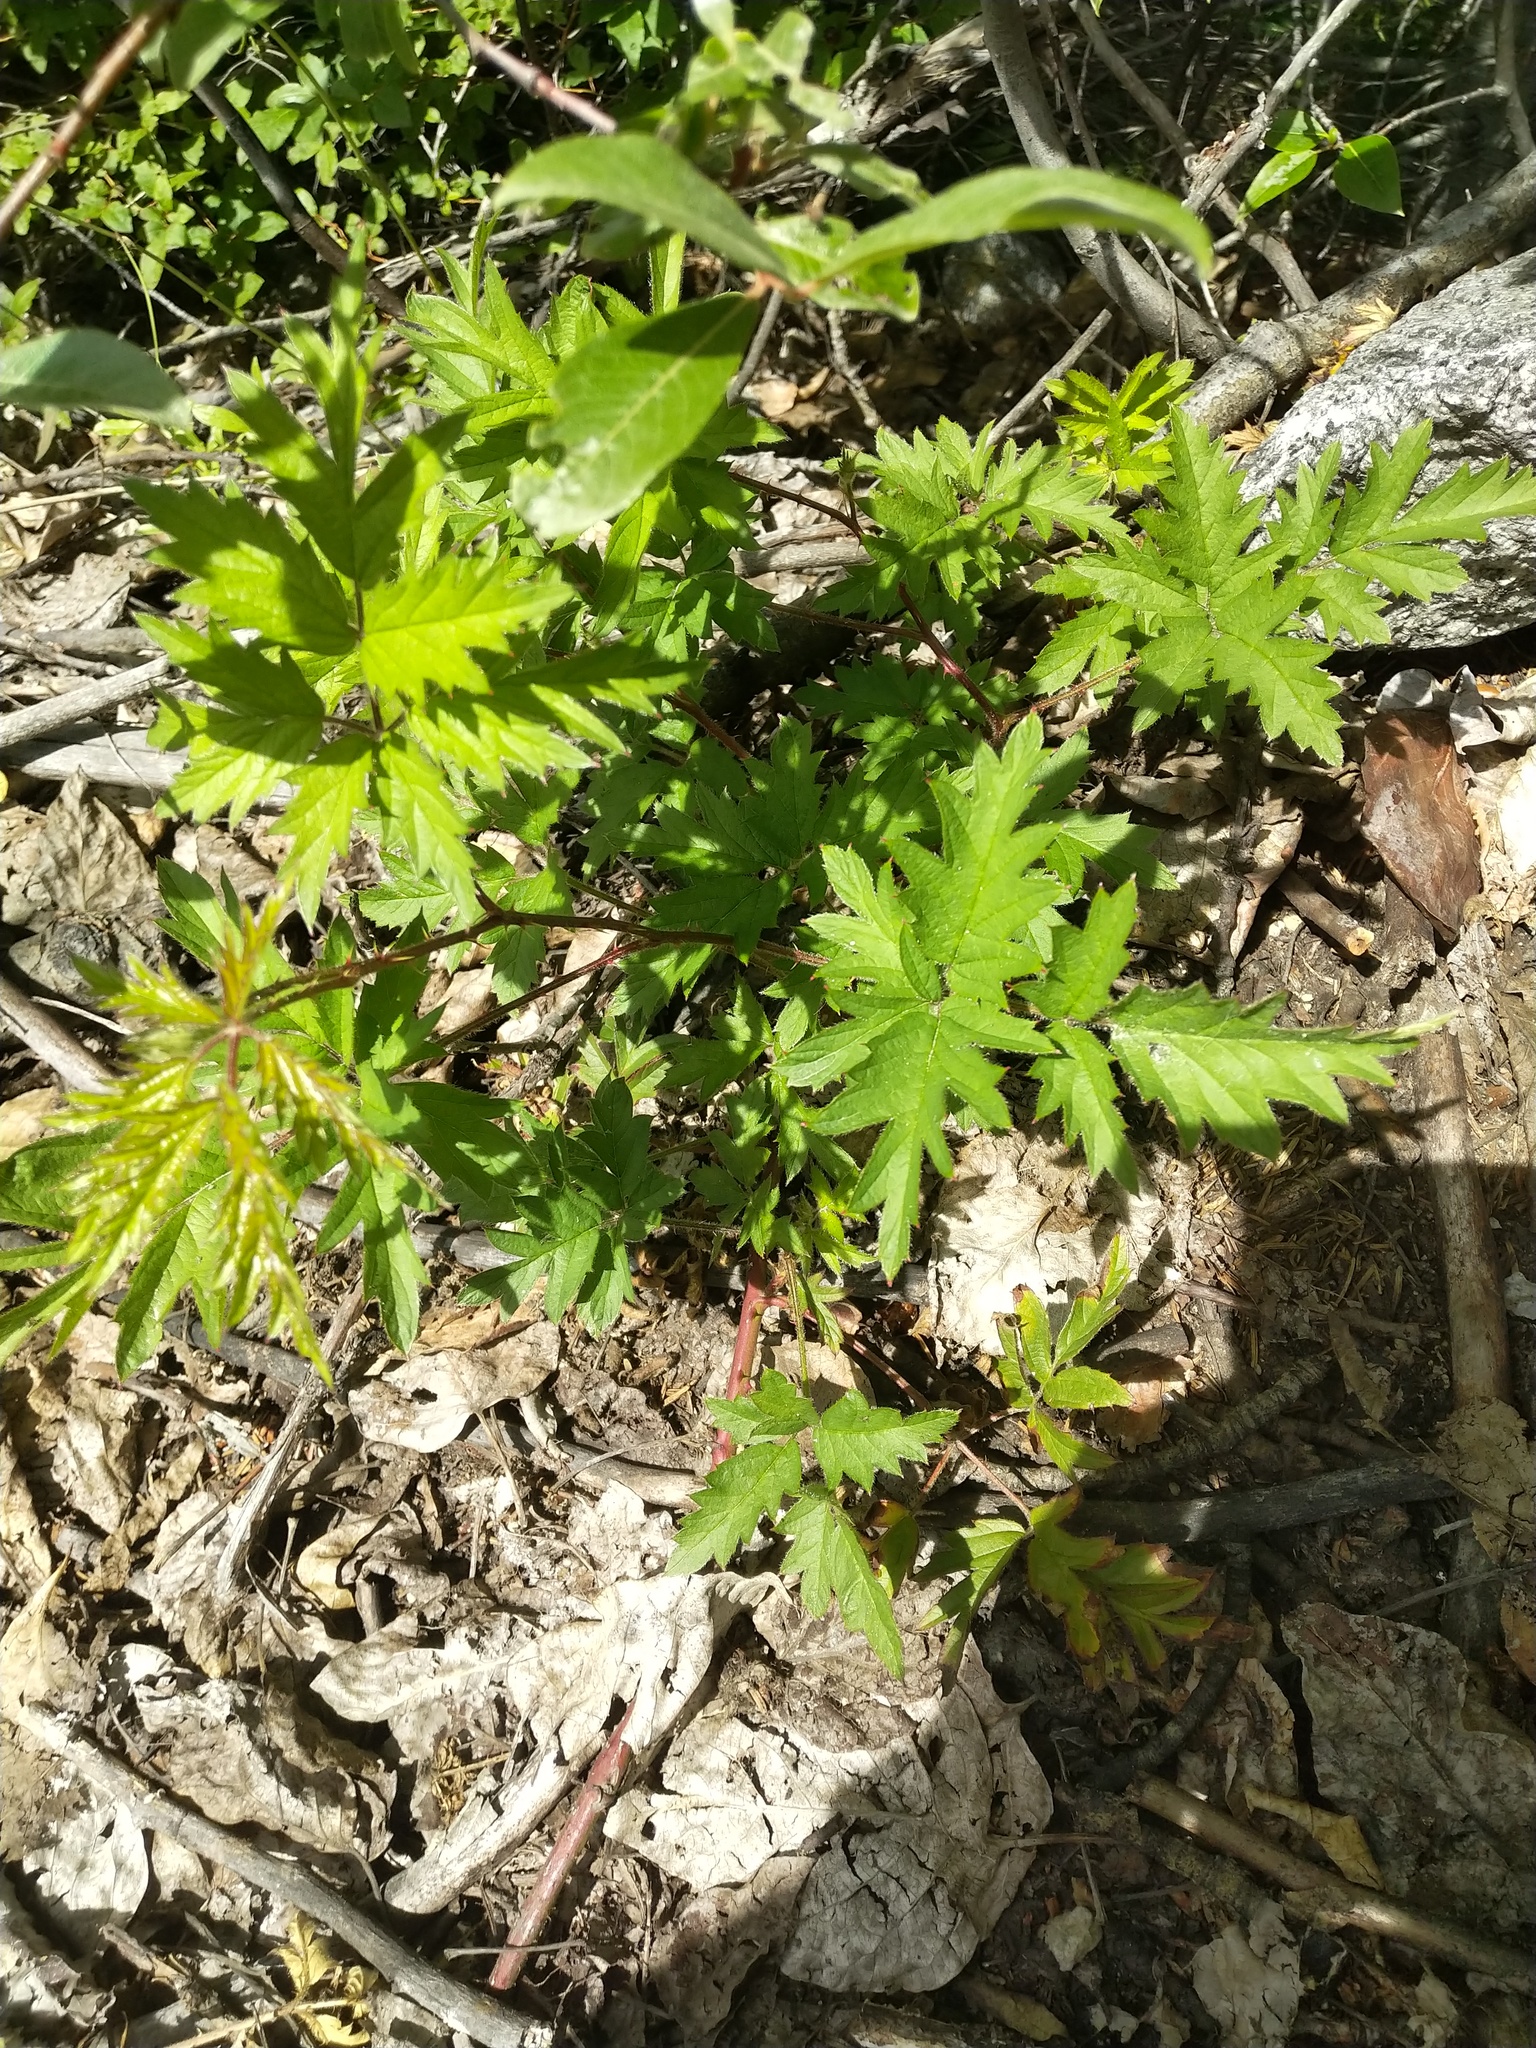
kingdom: Plantae
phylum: Tracheophyta
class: Magnoliopsida
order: Rosales
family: Rosaceae
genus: Rubus
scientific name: Rubus laciniatus
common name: Evergreen blackberry
